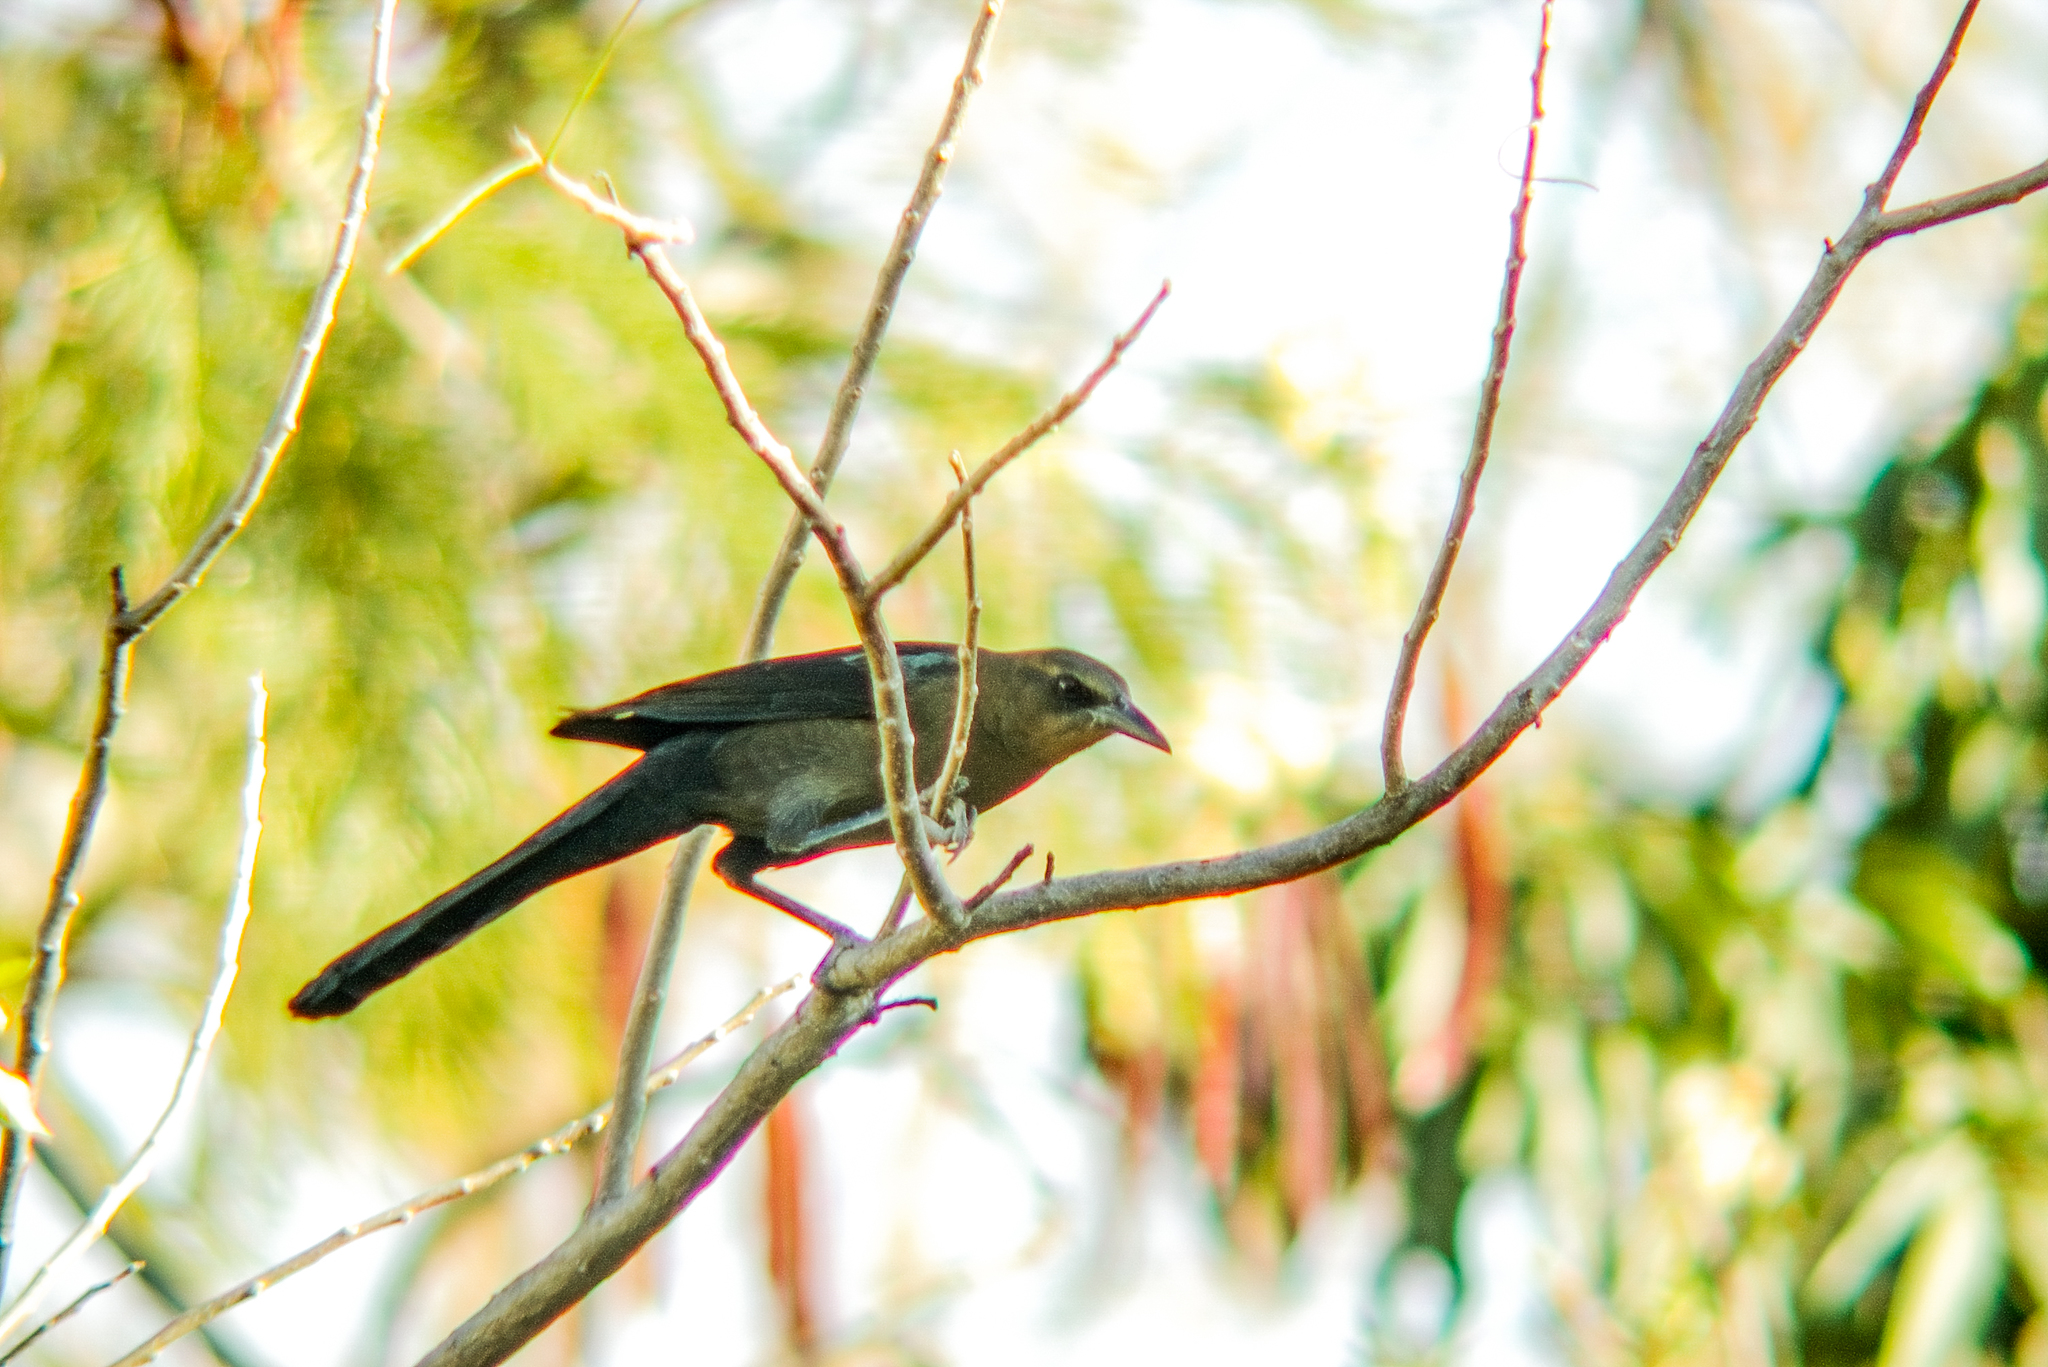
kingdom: Animalia
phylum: Chordata
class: Aves
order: Passeriformes
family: Icteridae
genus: Quiscalus
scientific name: Quiscalus mexicanus
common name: Great-tailed grackle
